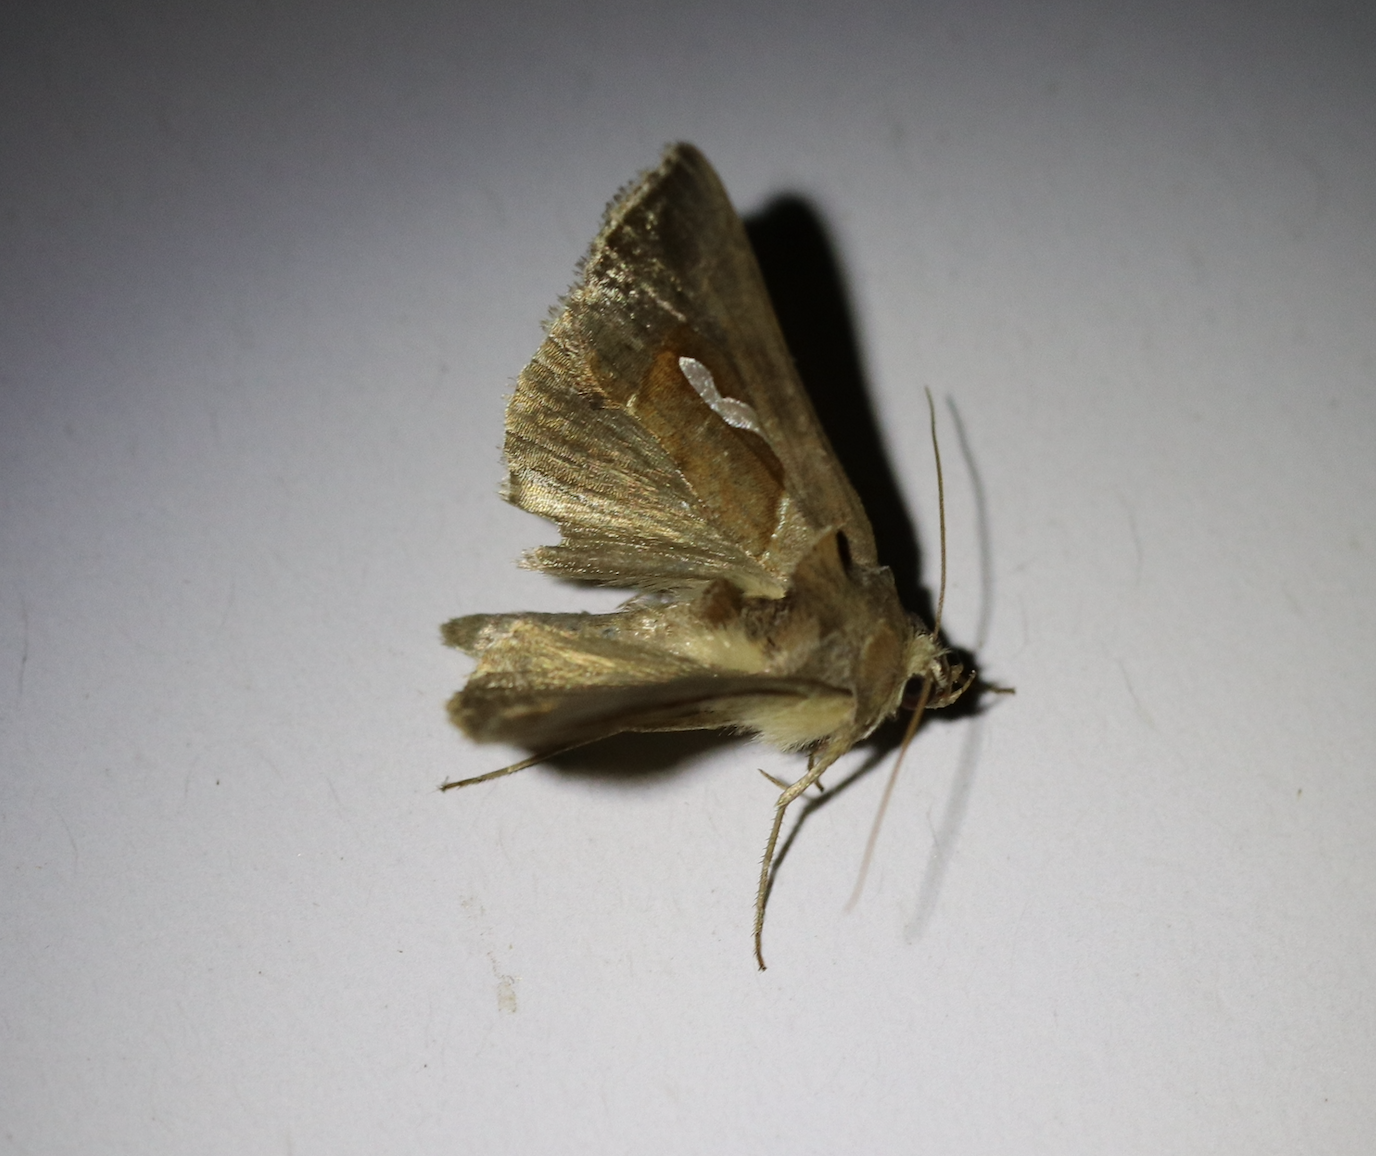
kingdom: Animalia
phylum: Arthropoda
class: Insecta
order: Lepidoptera
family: Noctuidae
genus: Macdunnoughia
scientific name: Macdunnoughia confusa
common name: Dewick's plusia
